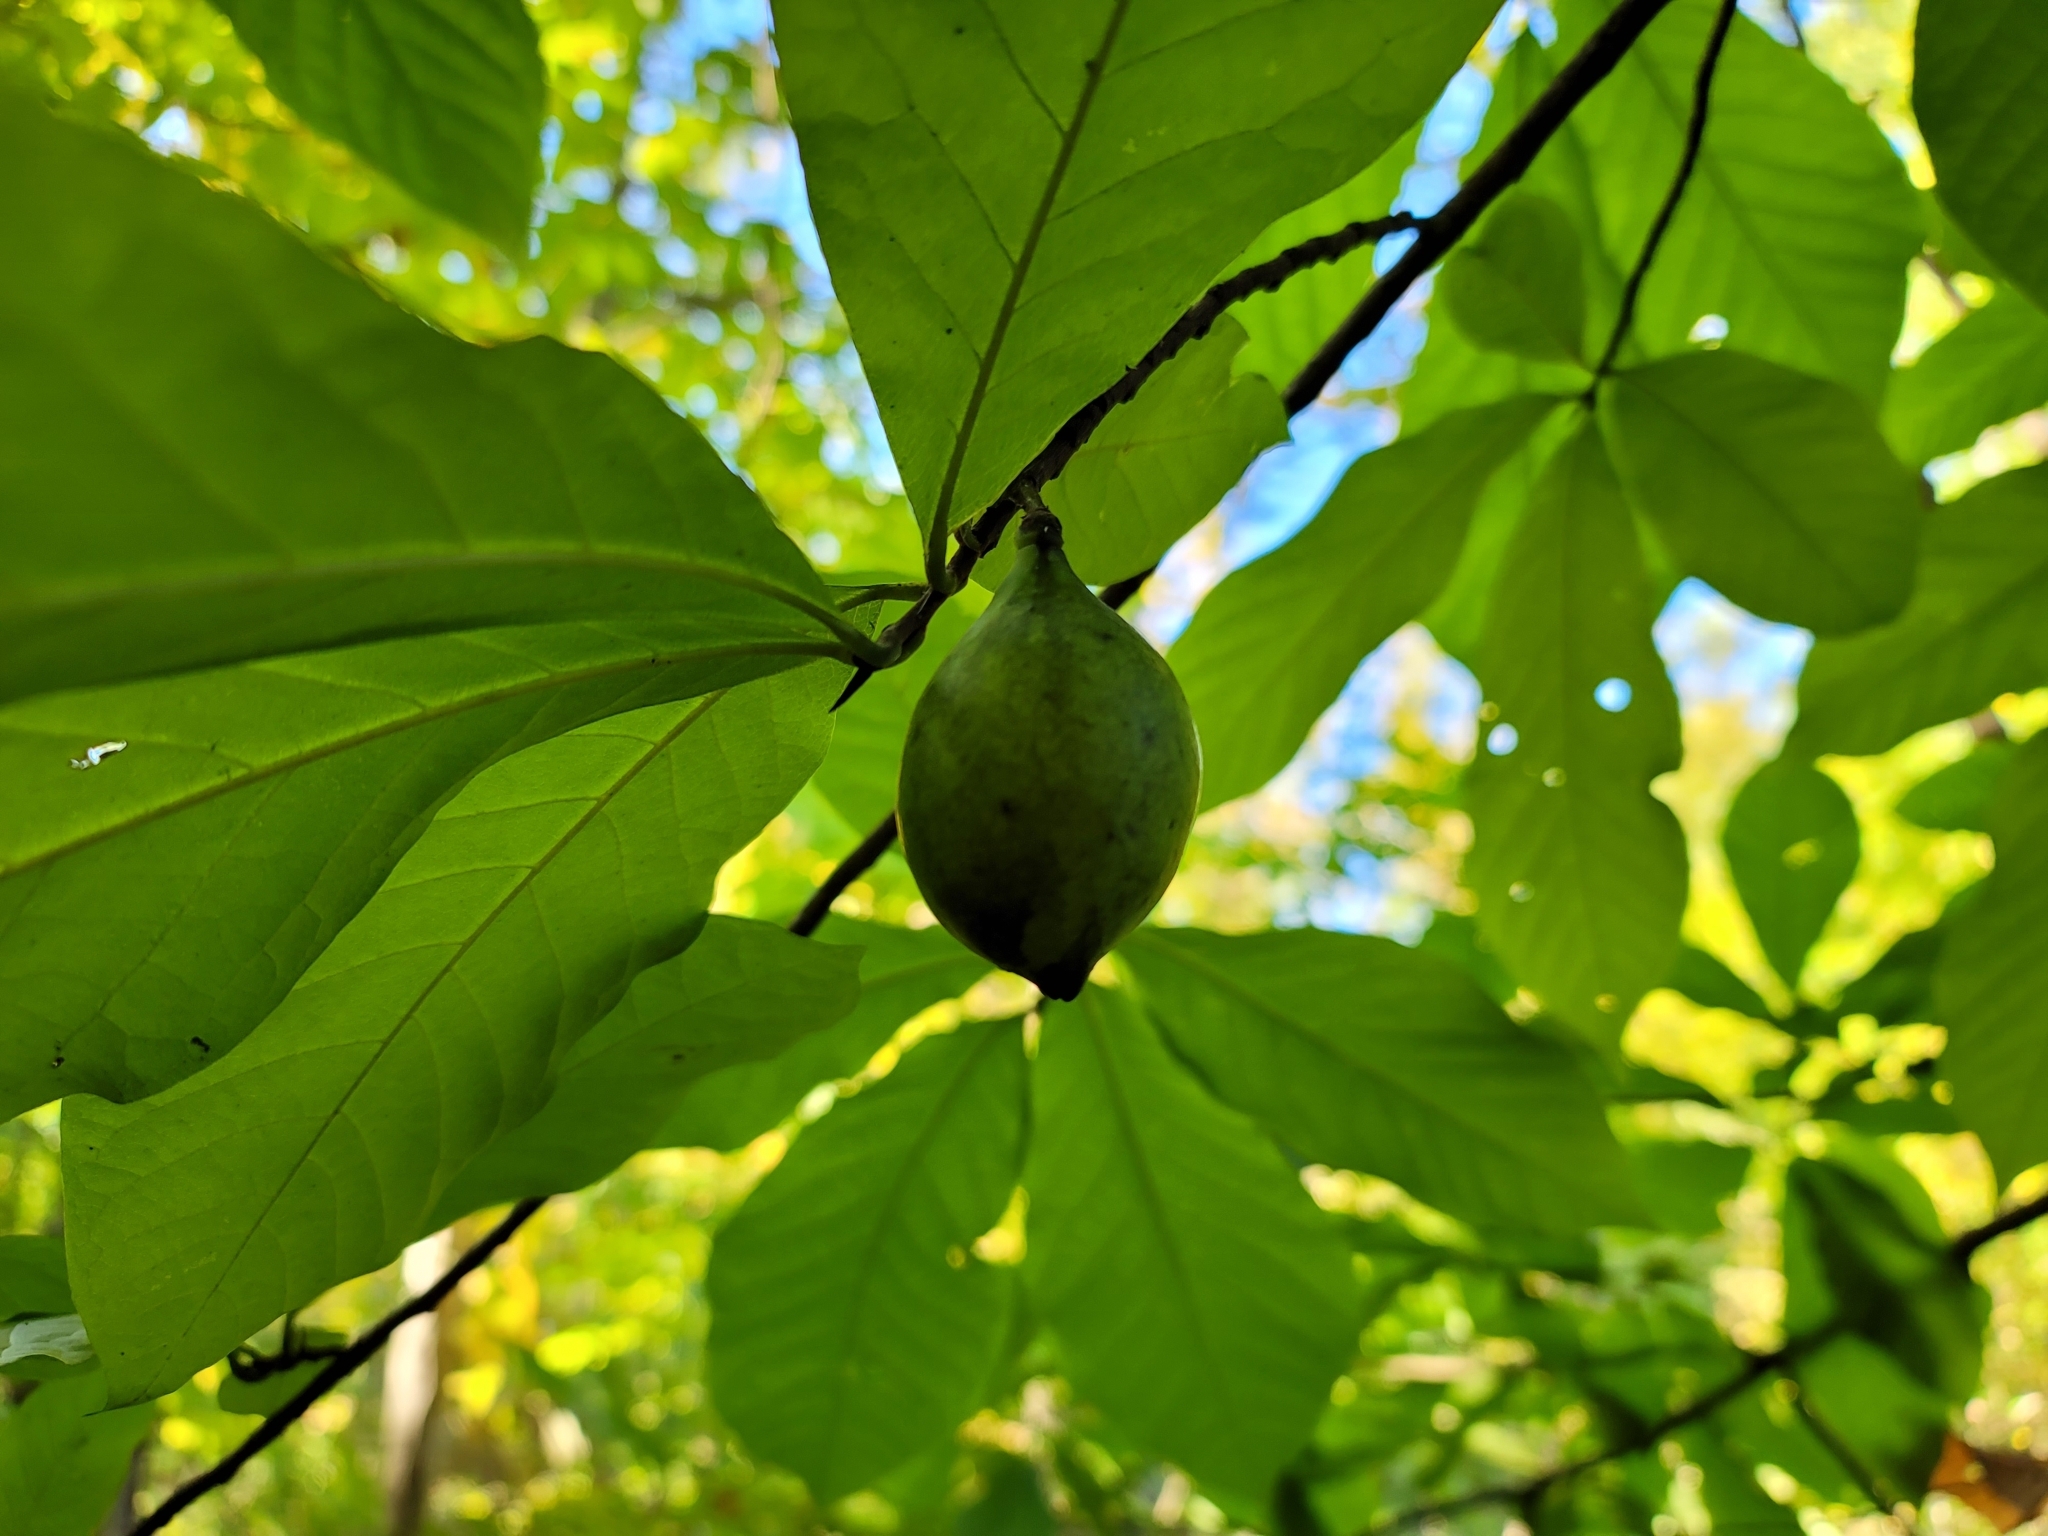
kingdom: Plantae
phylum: Tracheophyta
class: Magnoliopsida
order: Magnoliales
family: Annonaceae
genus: Asimina
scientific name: Asimina triloba
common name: Dog-banana
